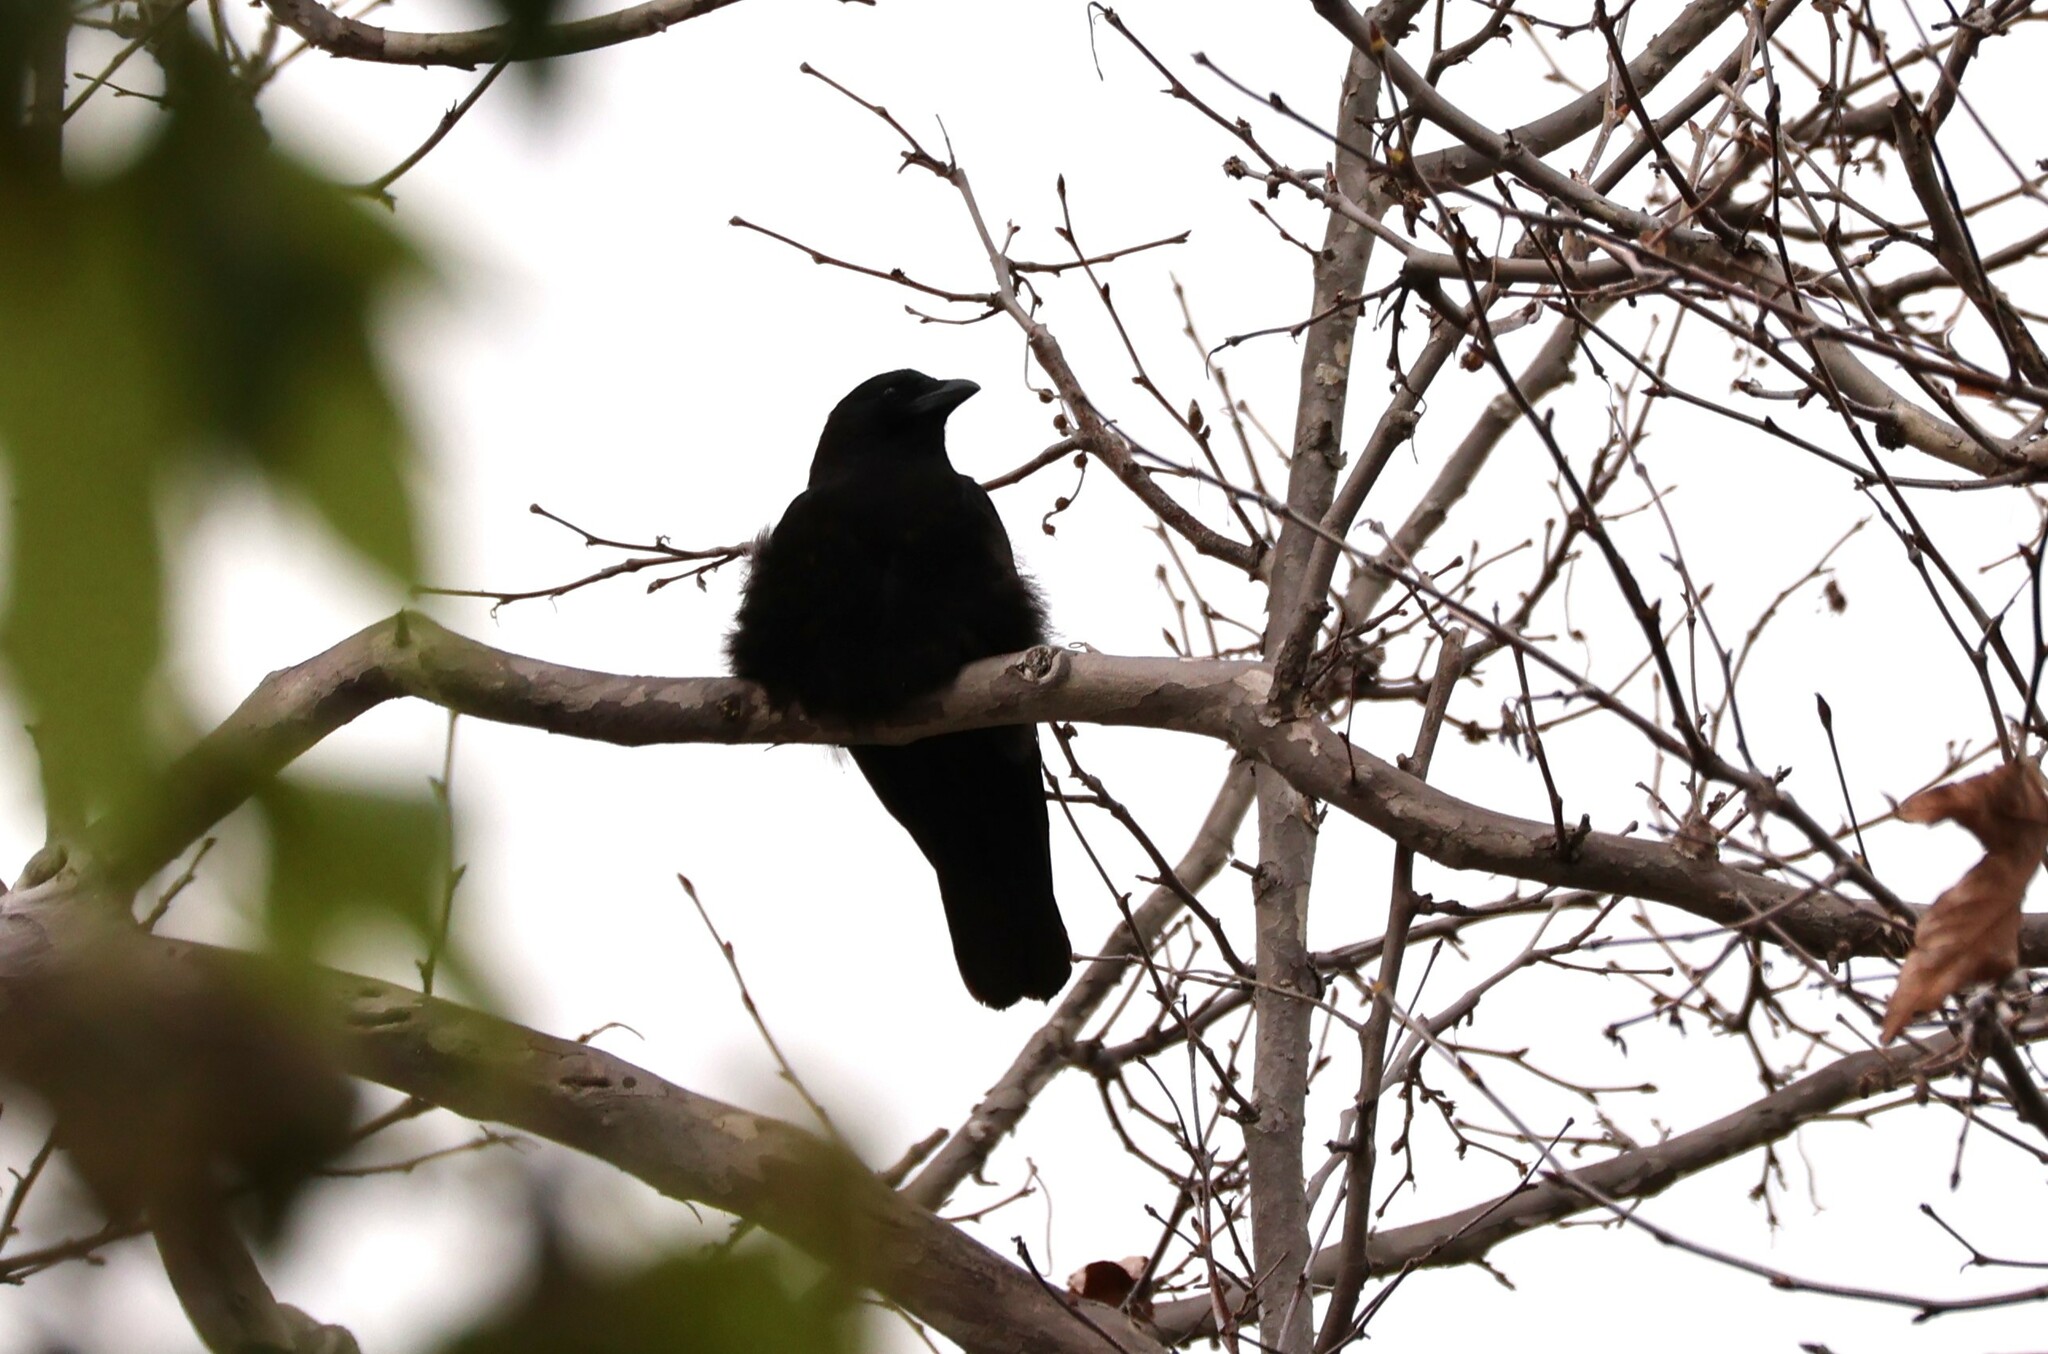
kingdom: Animalia
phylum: Chordata
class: Aves
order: Passeriformes
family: Corvidae
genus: Corvus
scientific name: Corvus brachyrhynchos
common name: American crow
